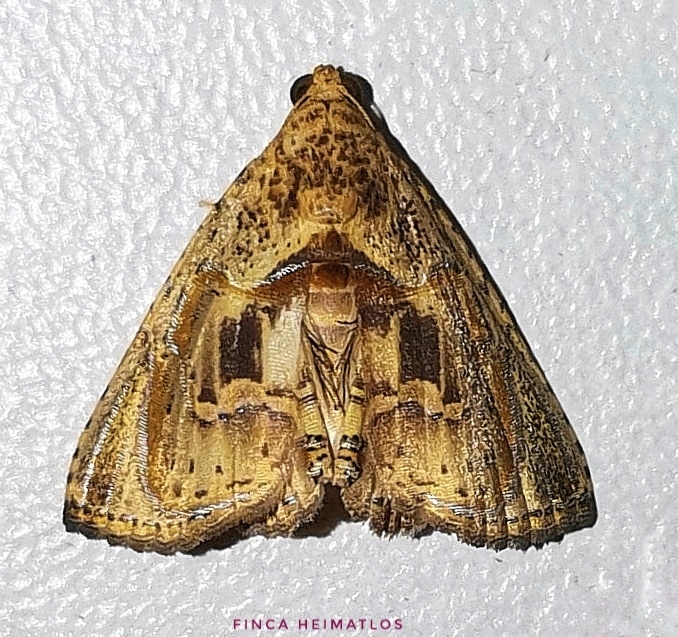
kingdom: Animalia
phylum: Arthropoda
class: Insecta
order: Lepidoptera
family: Erebidae
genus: Calydia
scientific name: Calydia osseata
